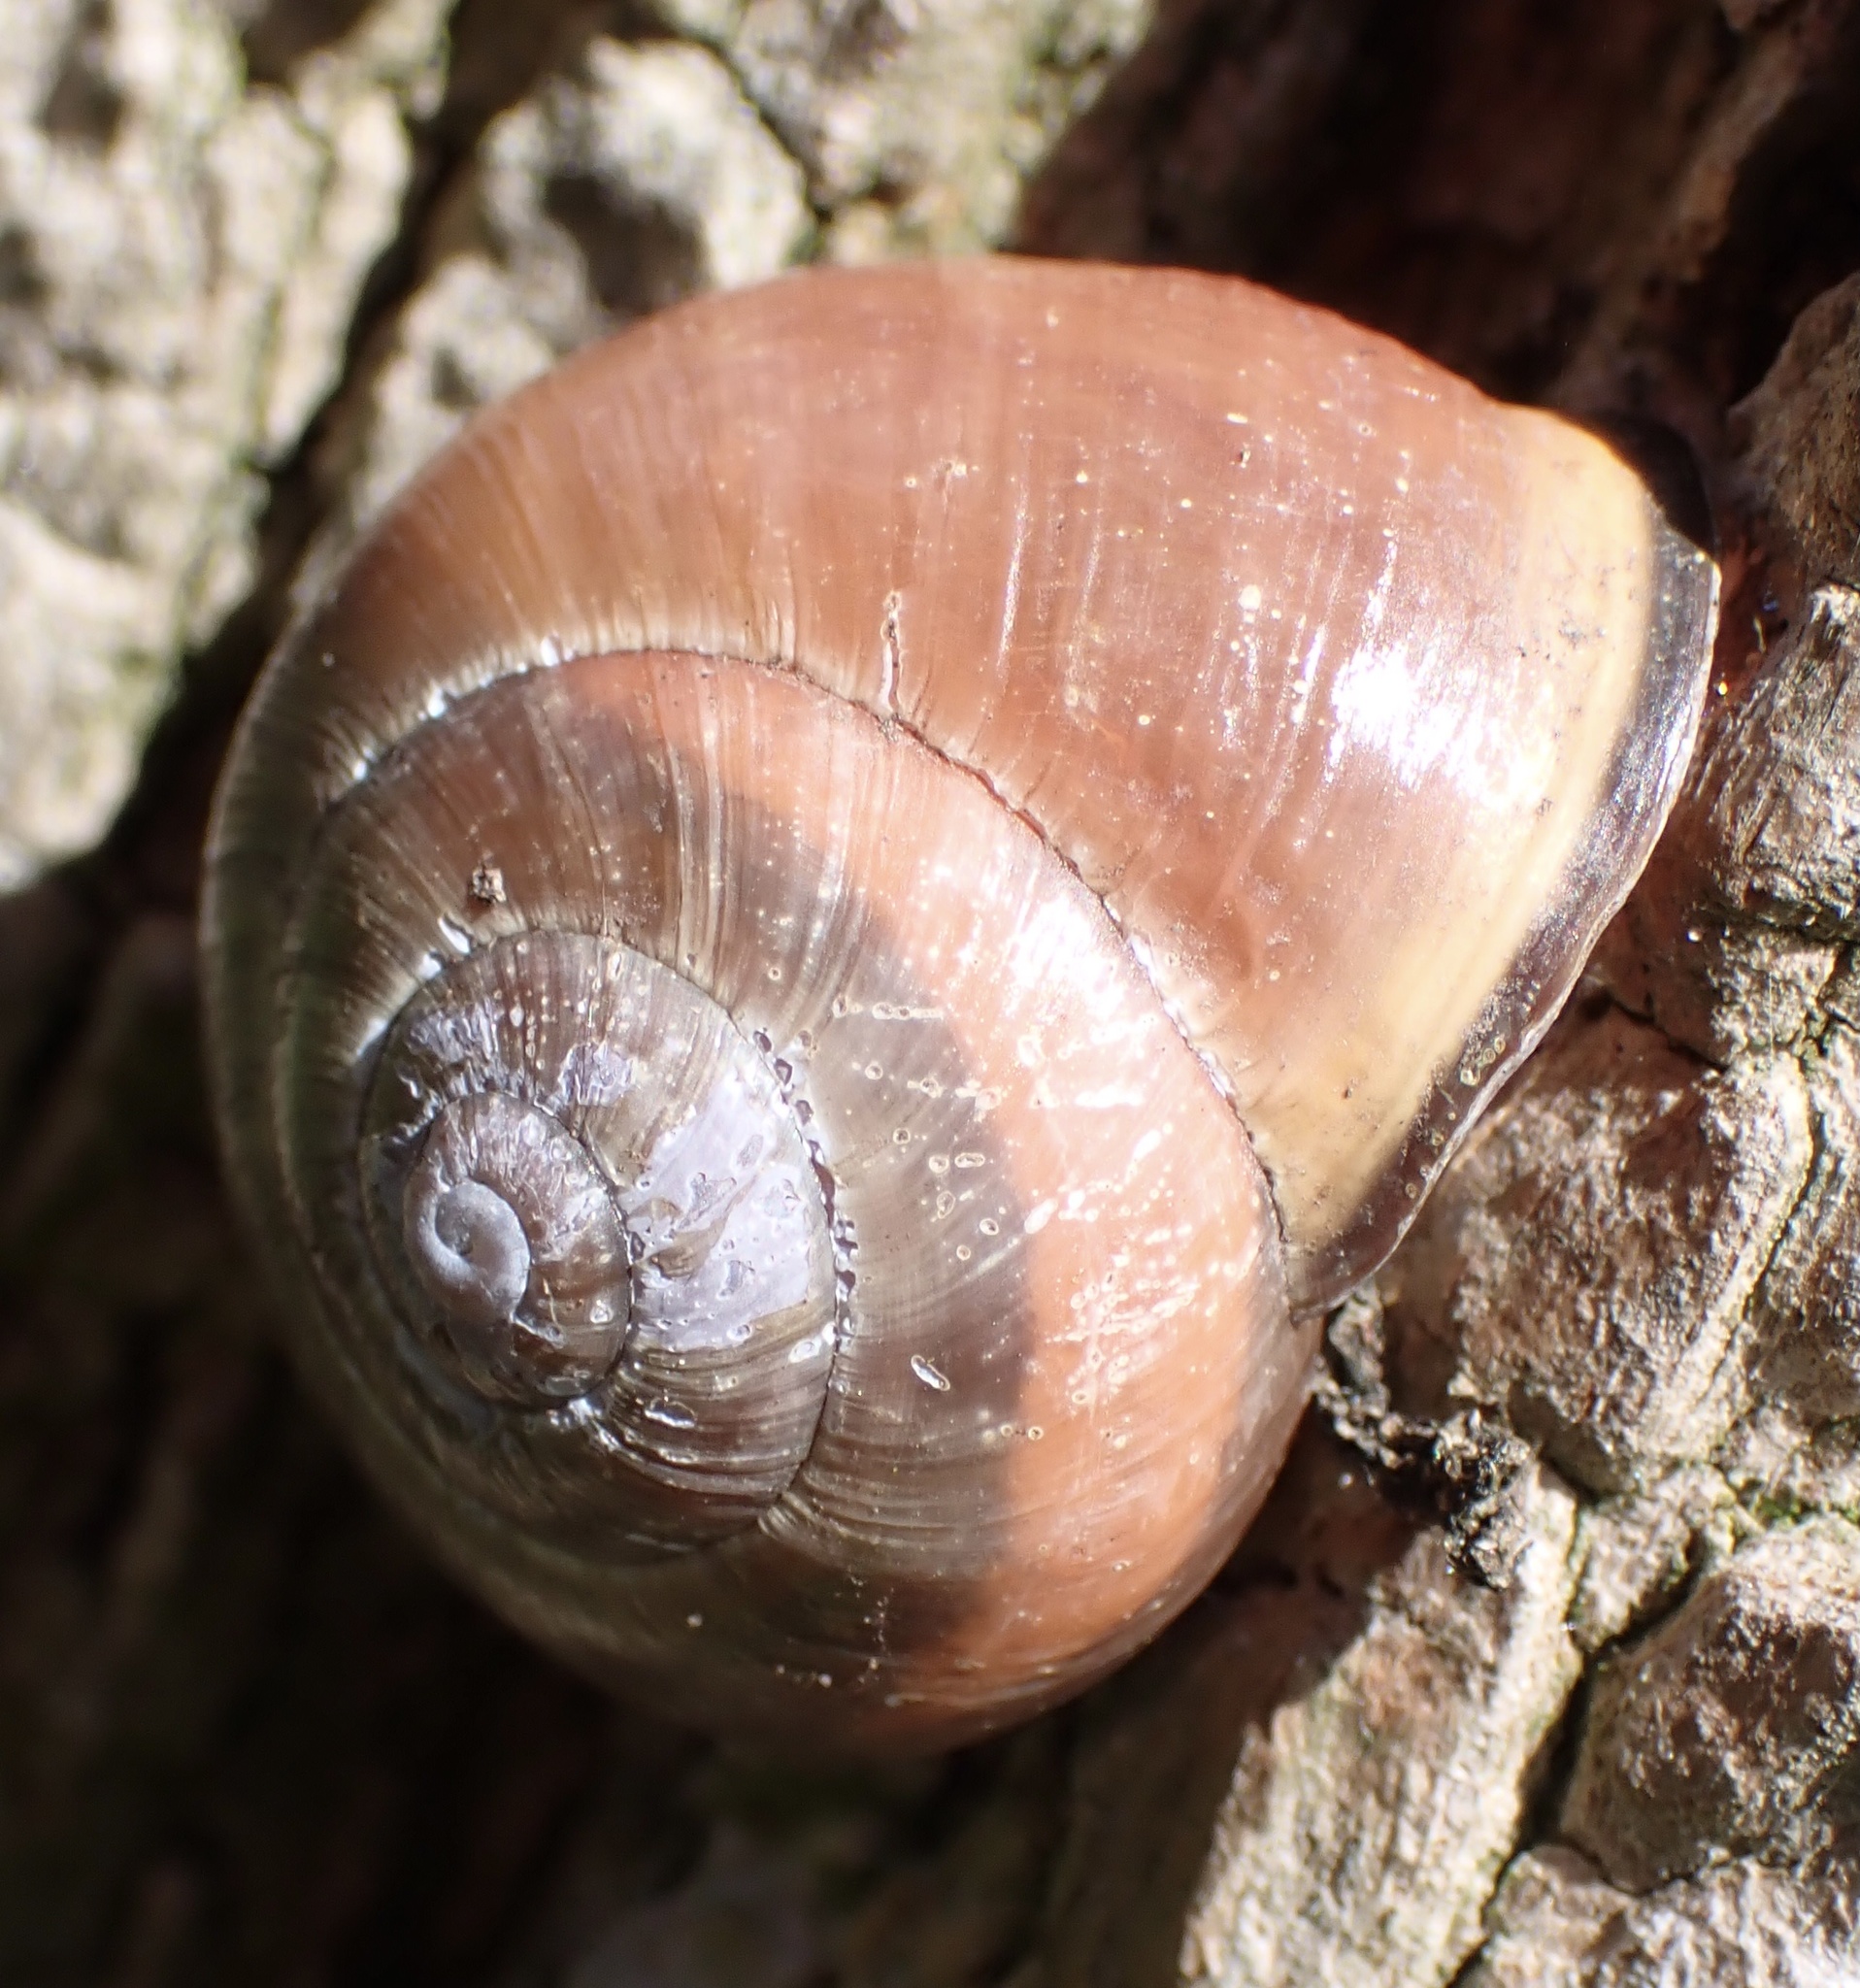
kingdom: Animalia
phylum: Mollusca
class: Gastropoda
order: Stylommatophora
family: Helicidae
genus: Cepaea
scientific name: Cepaea nemoralis
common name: Grovesnail
